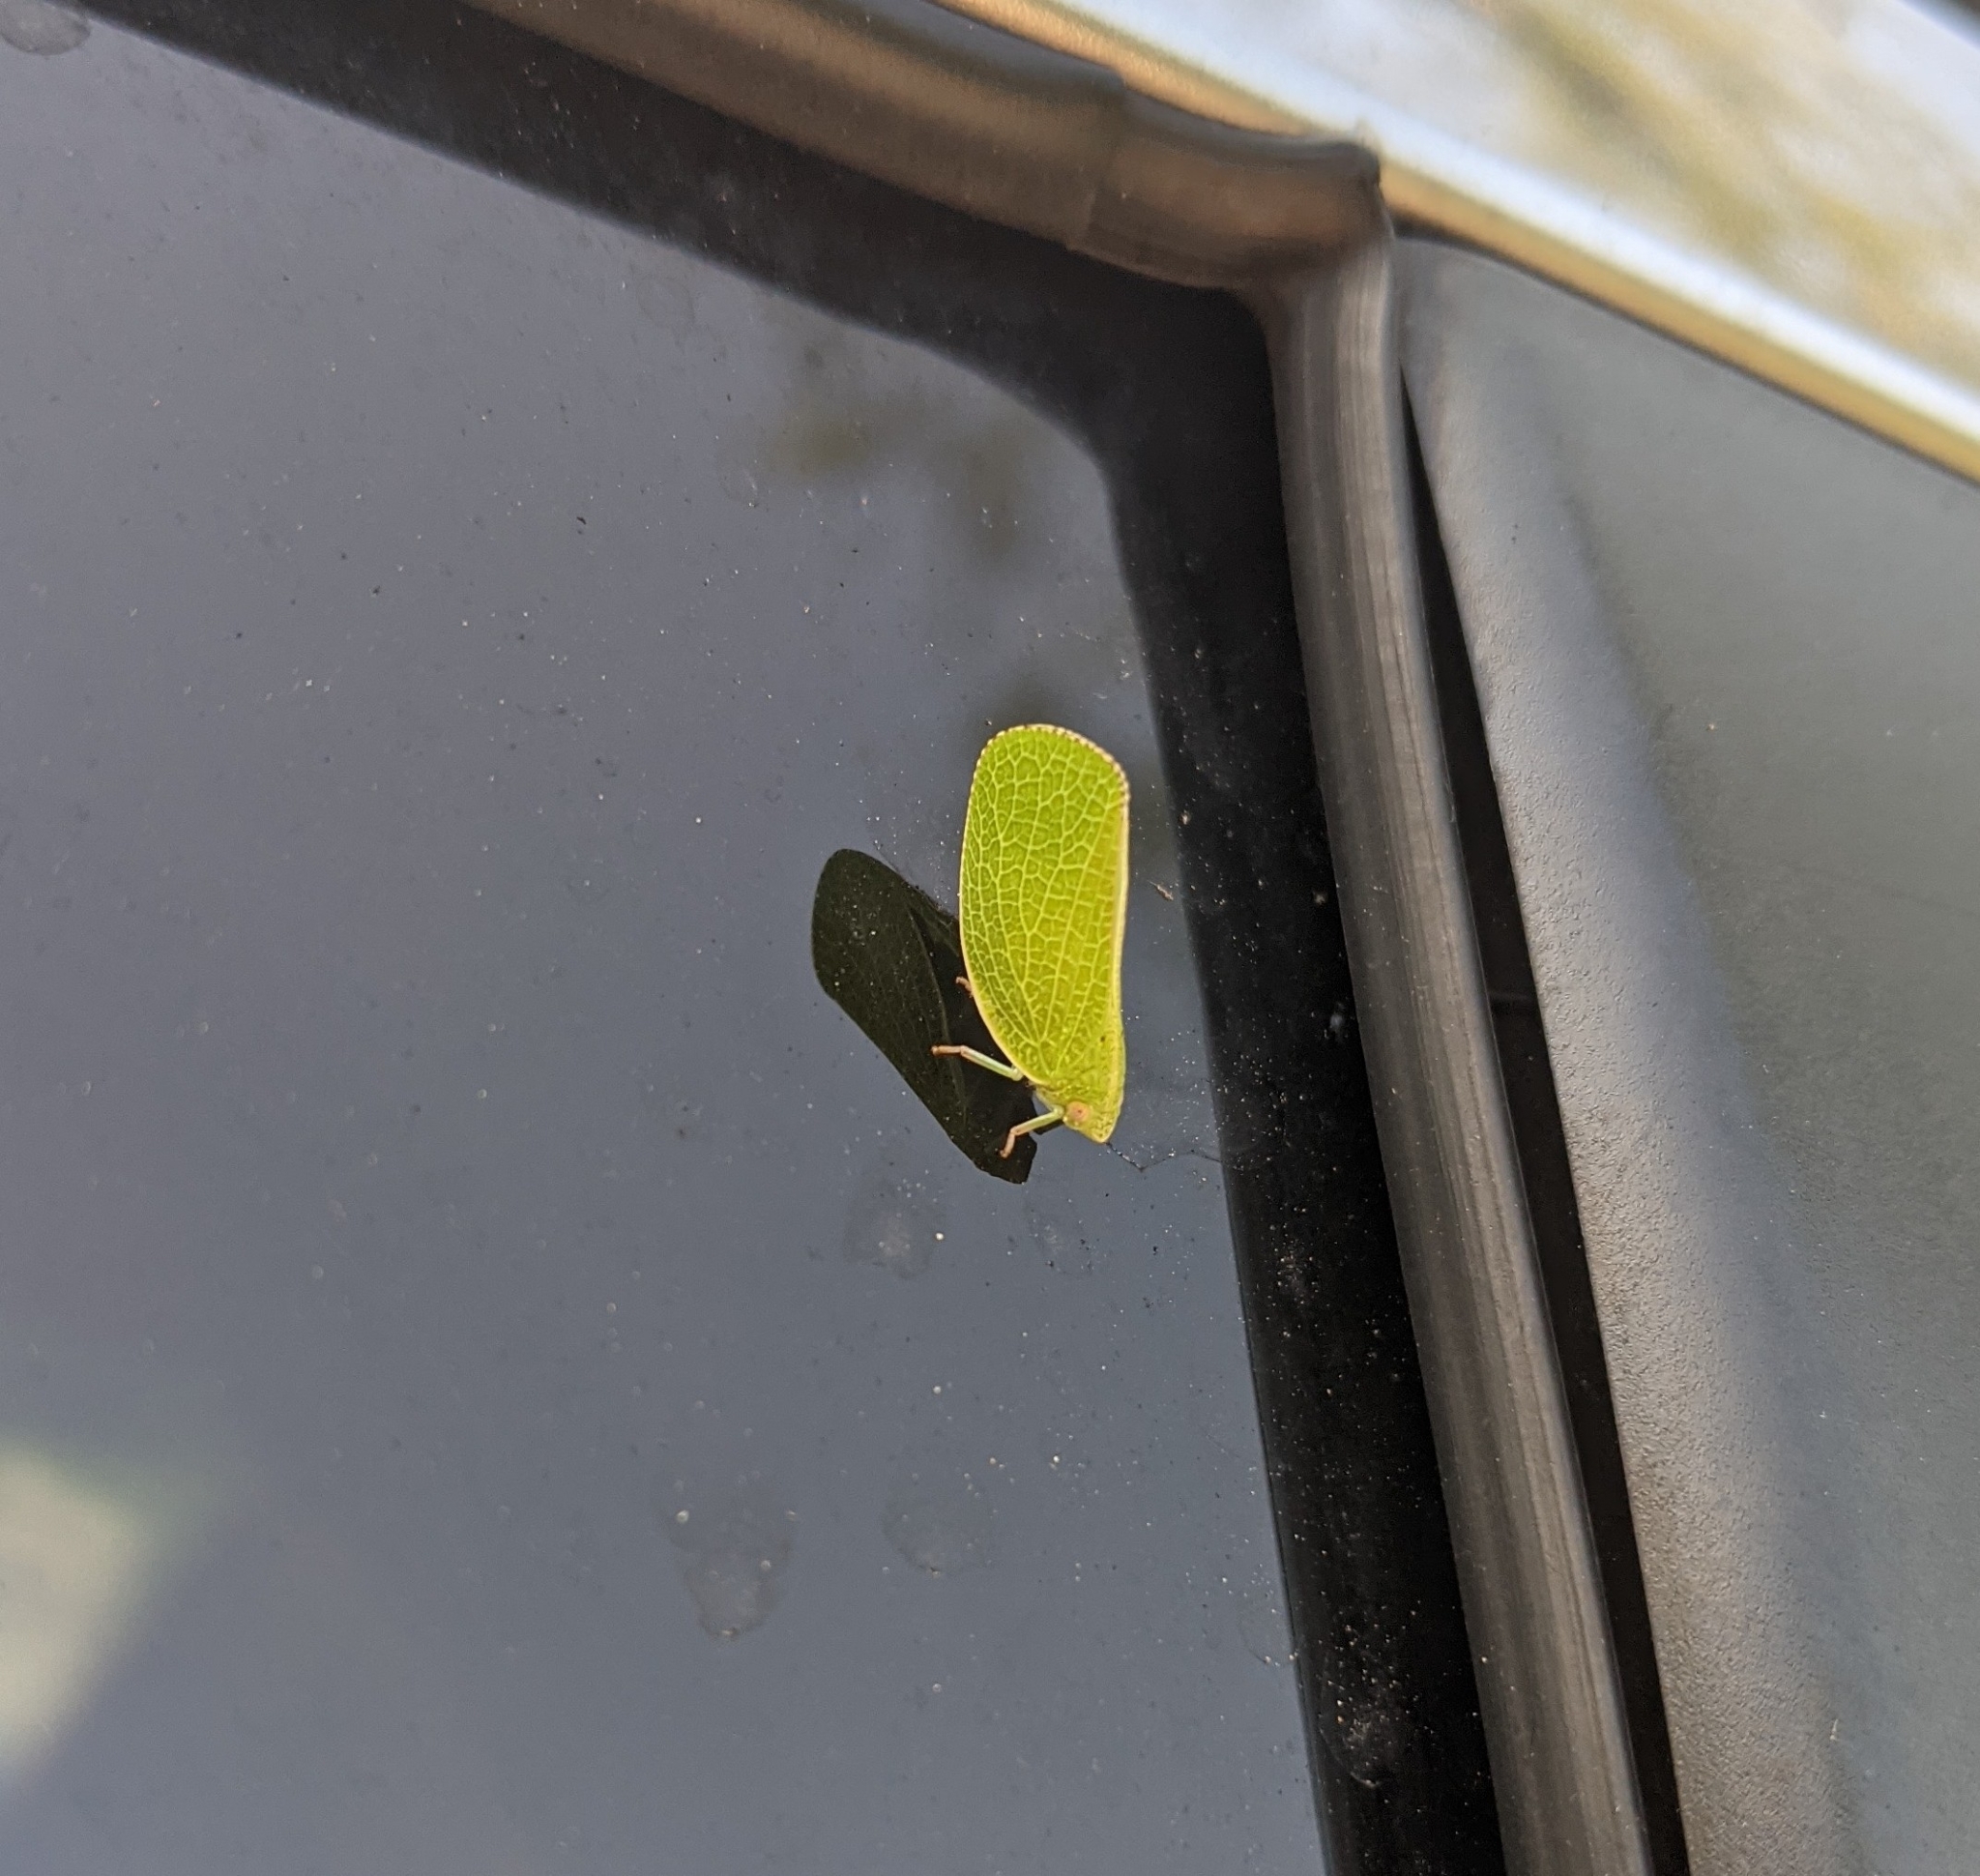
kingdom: Animalia
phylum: Arthropoda
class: Insecta
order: Hemiptera
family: Acanaloniidae
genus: Acanalonia
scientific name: Acanalonia conica
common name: Green cone-headed planthopper
